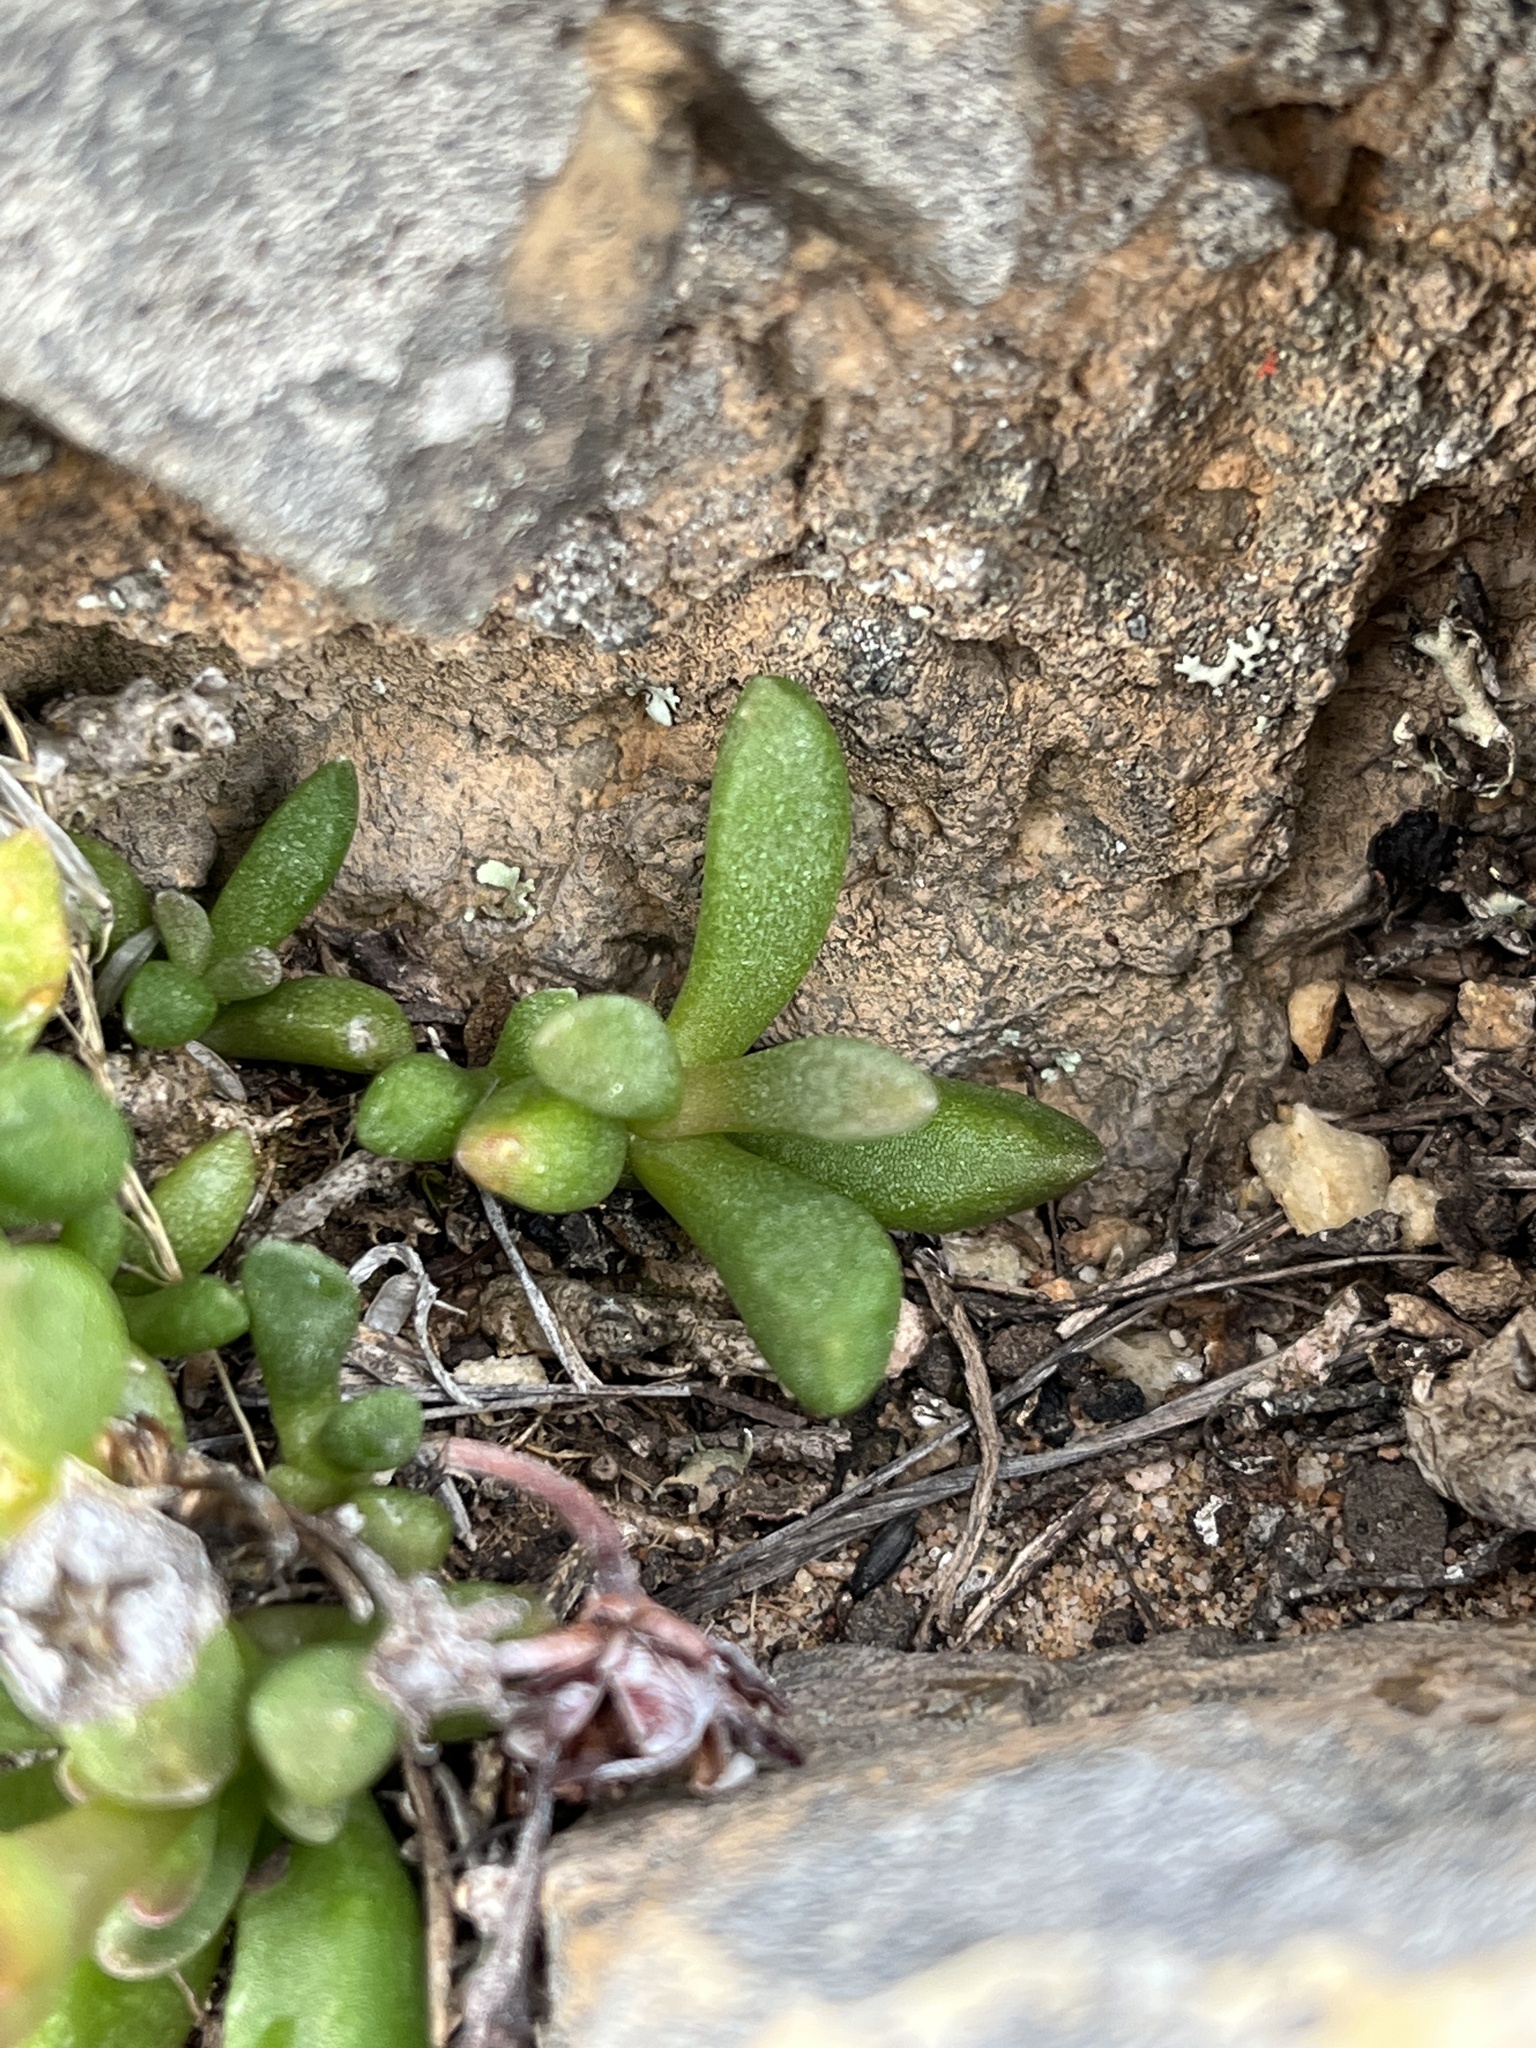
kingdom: Plantae
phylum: Tracheophyta
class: Magnoliopsida
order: Caryophyllales
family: Aizoaceae
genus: Delosperma
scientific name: Delosperma esterhuyseniae
